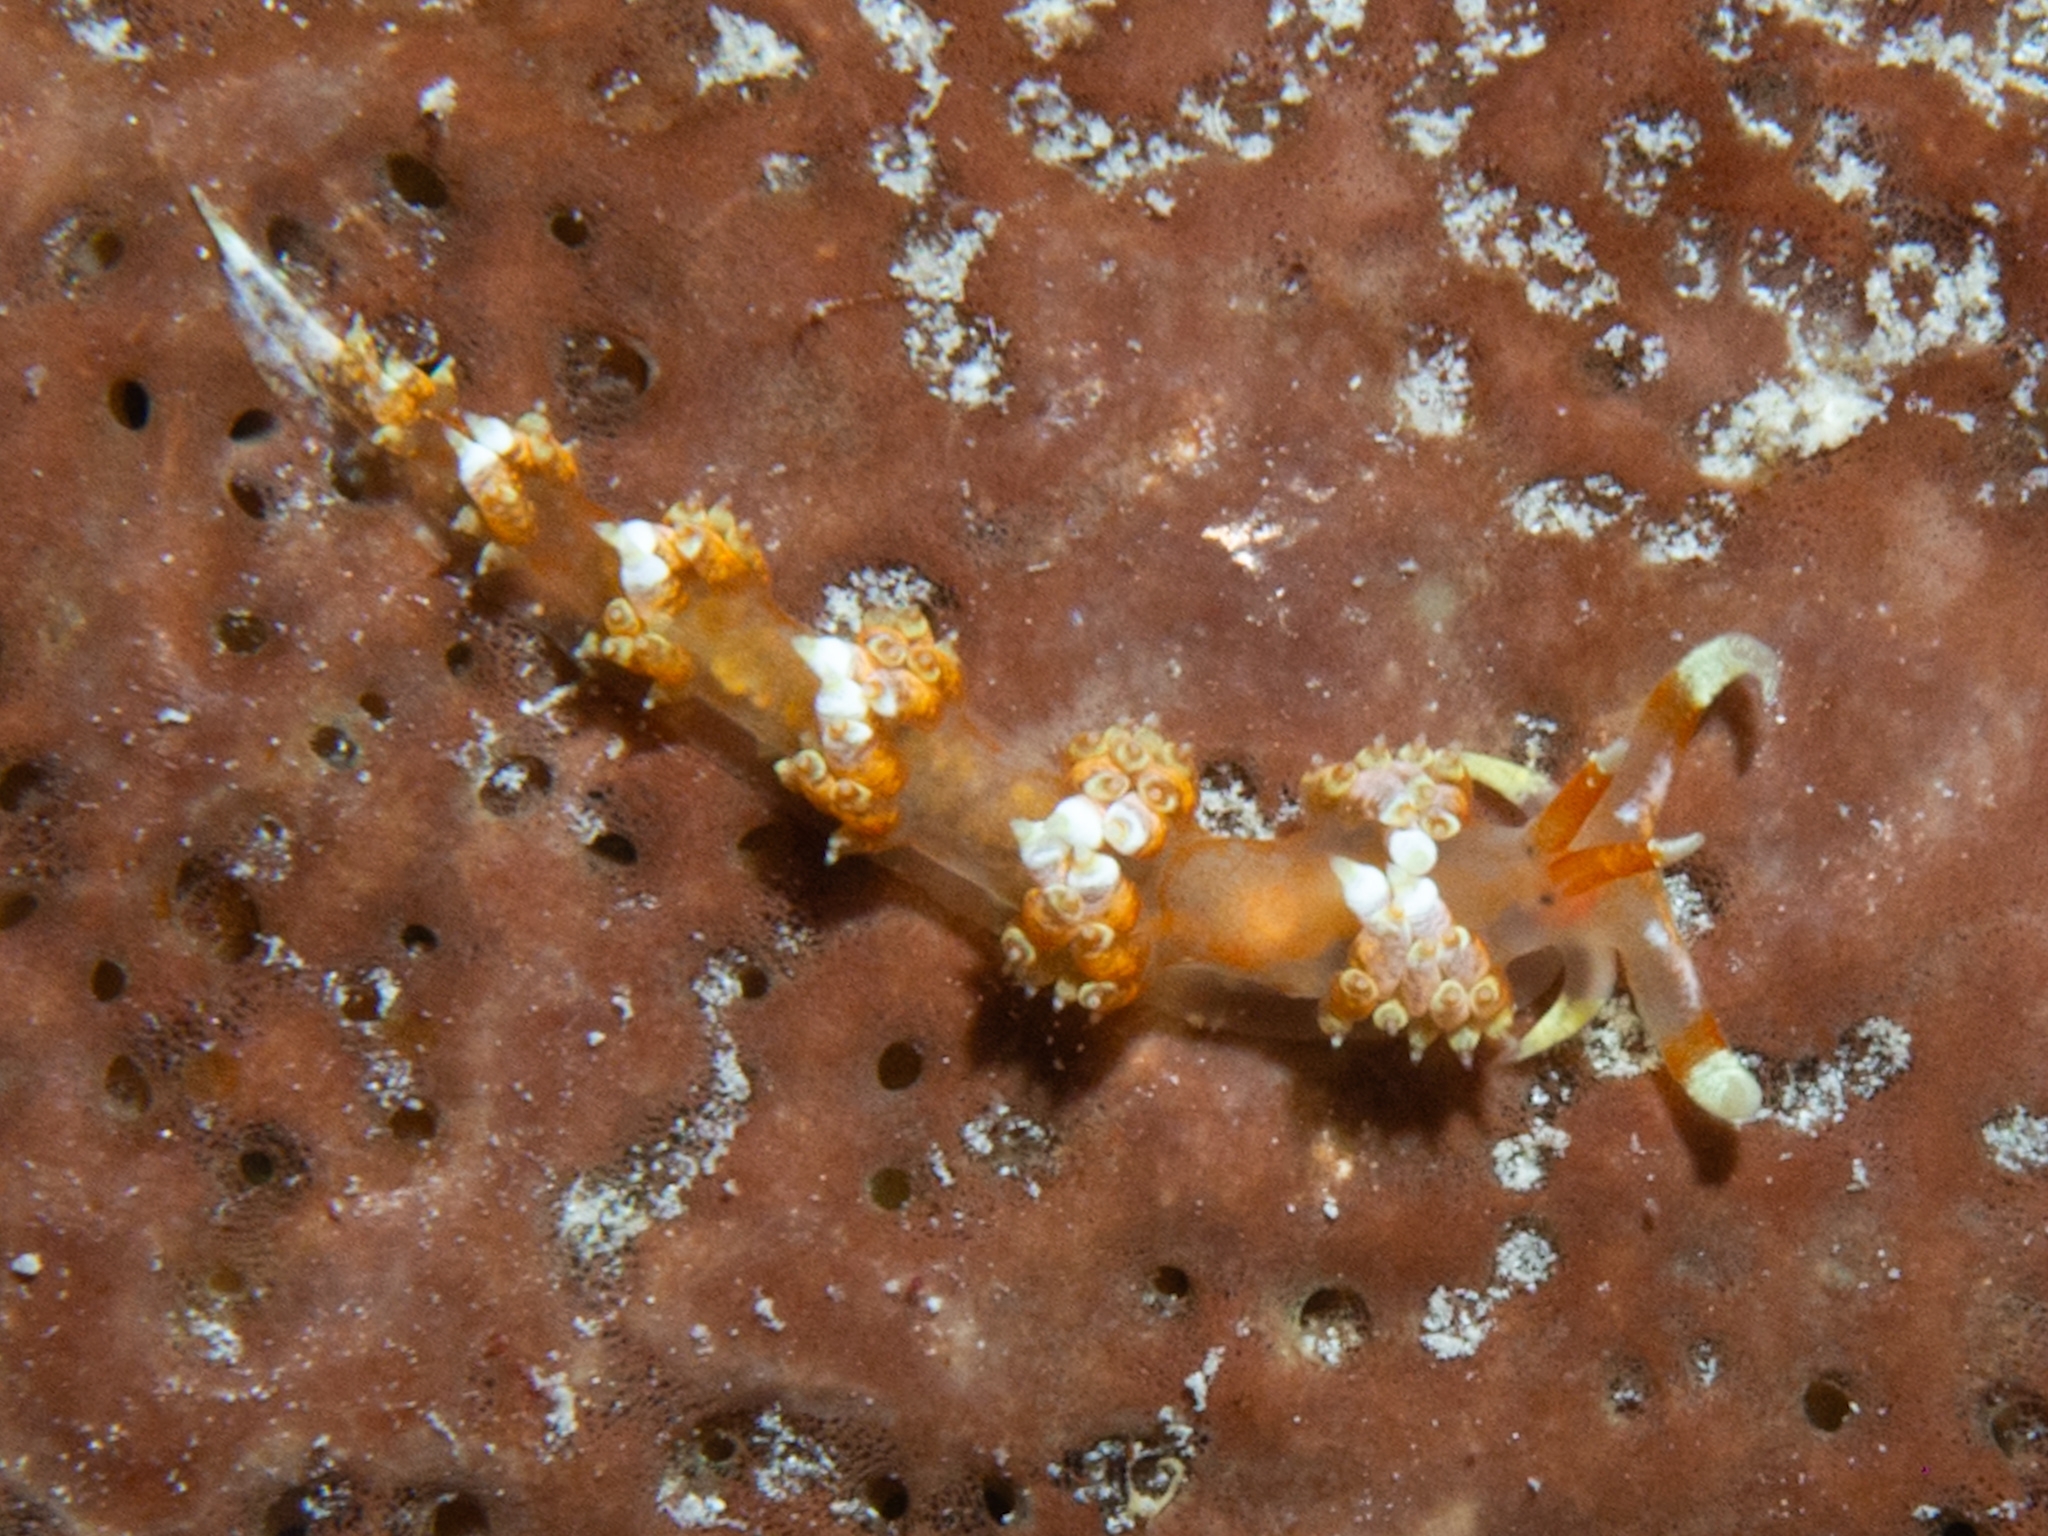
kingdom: Animalia
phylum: Mollusca
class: Gastropoda
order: Nudibranchia
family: Facelinidae
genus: Austraeolis
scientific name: Austraeolis catina
